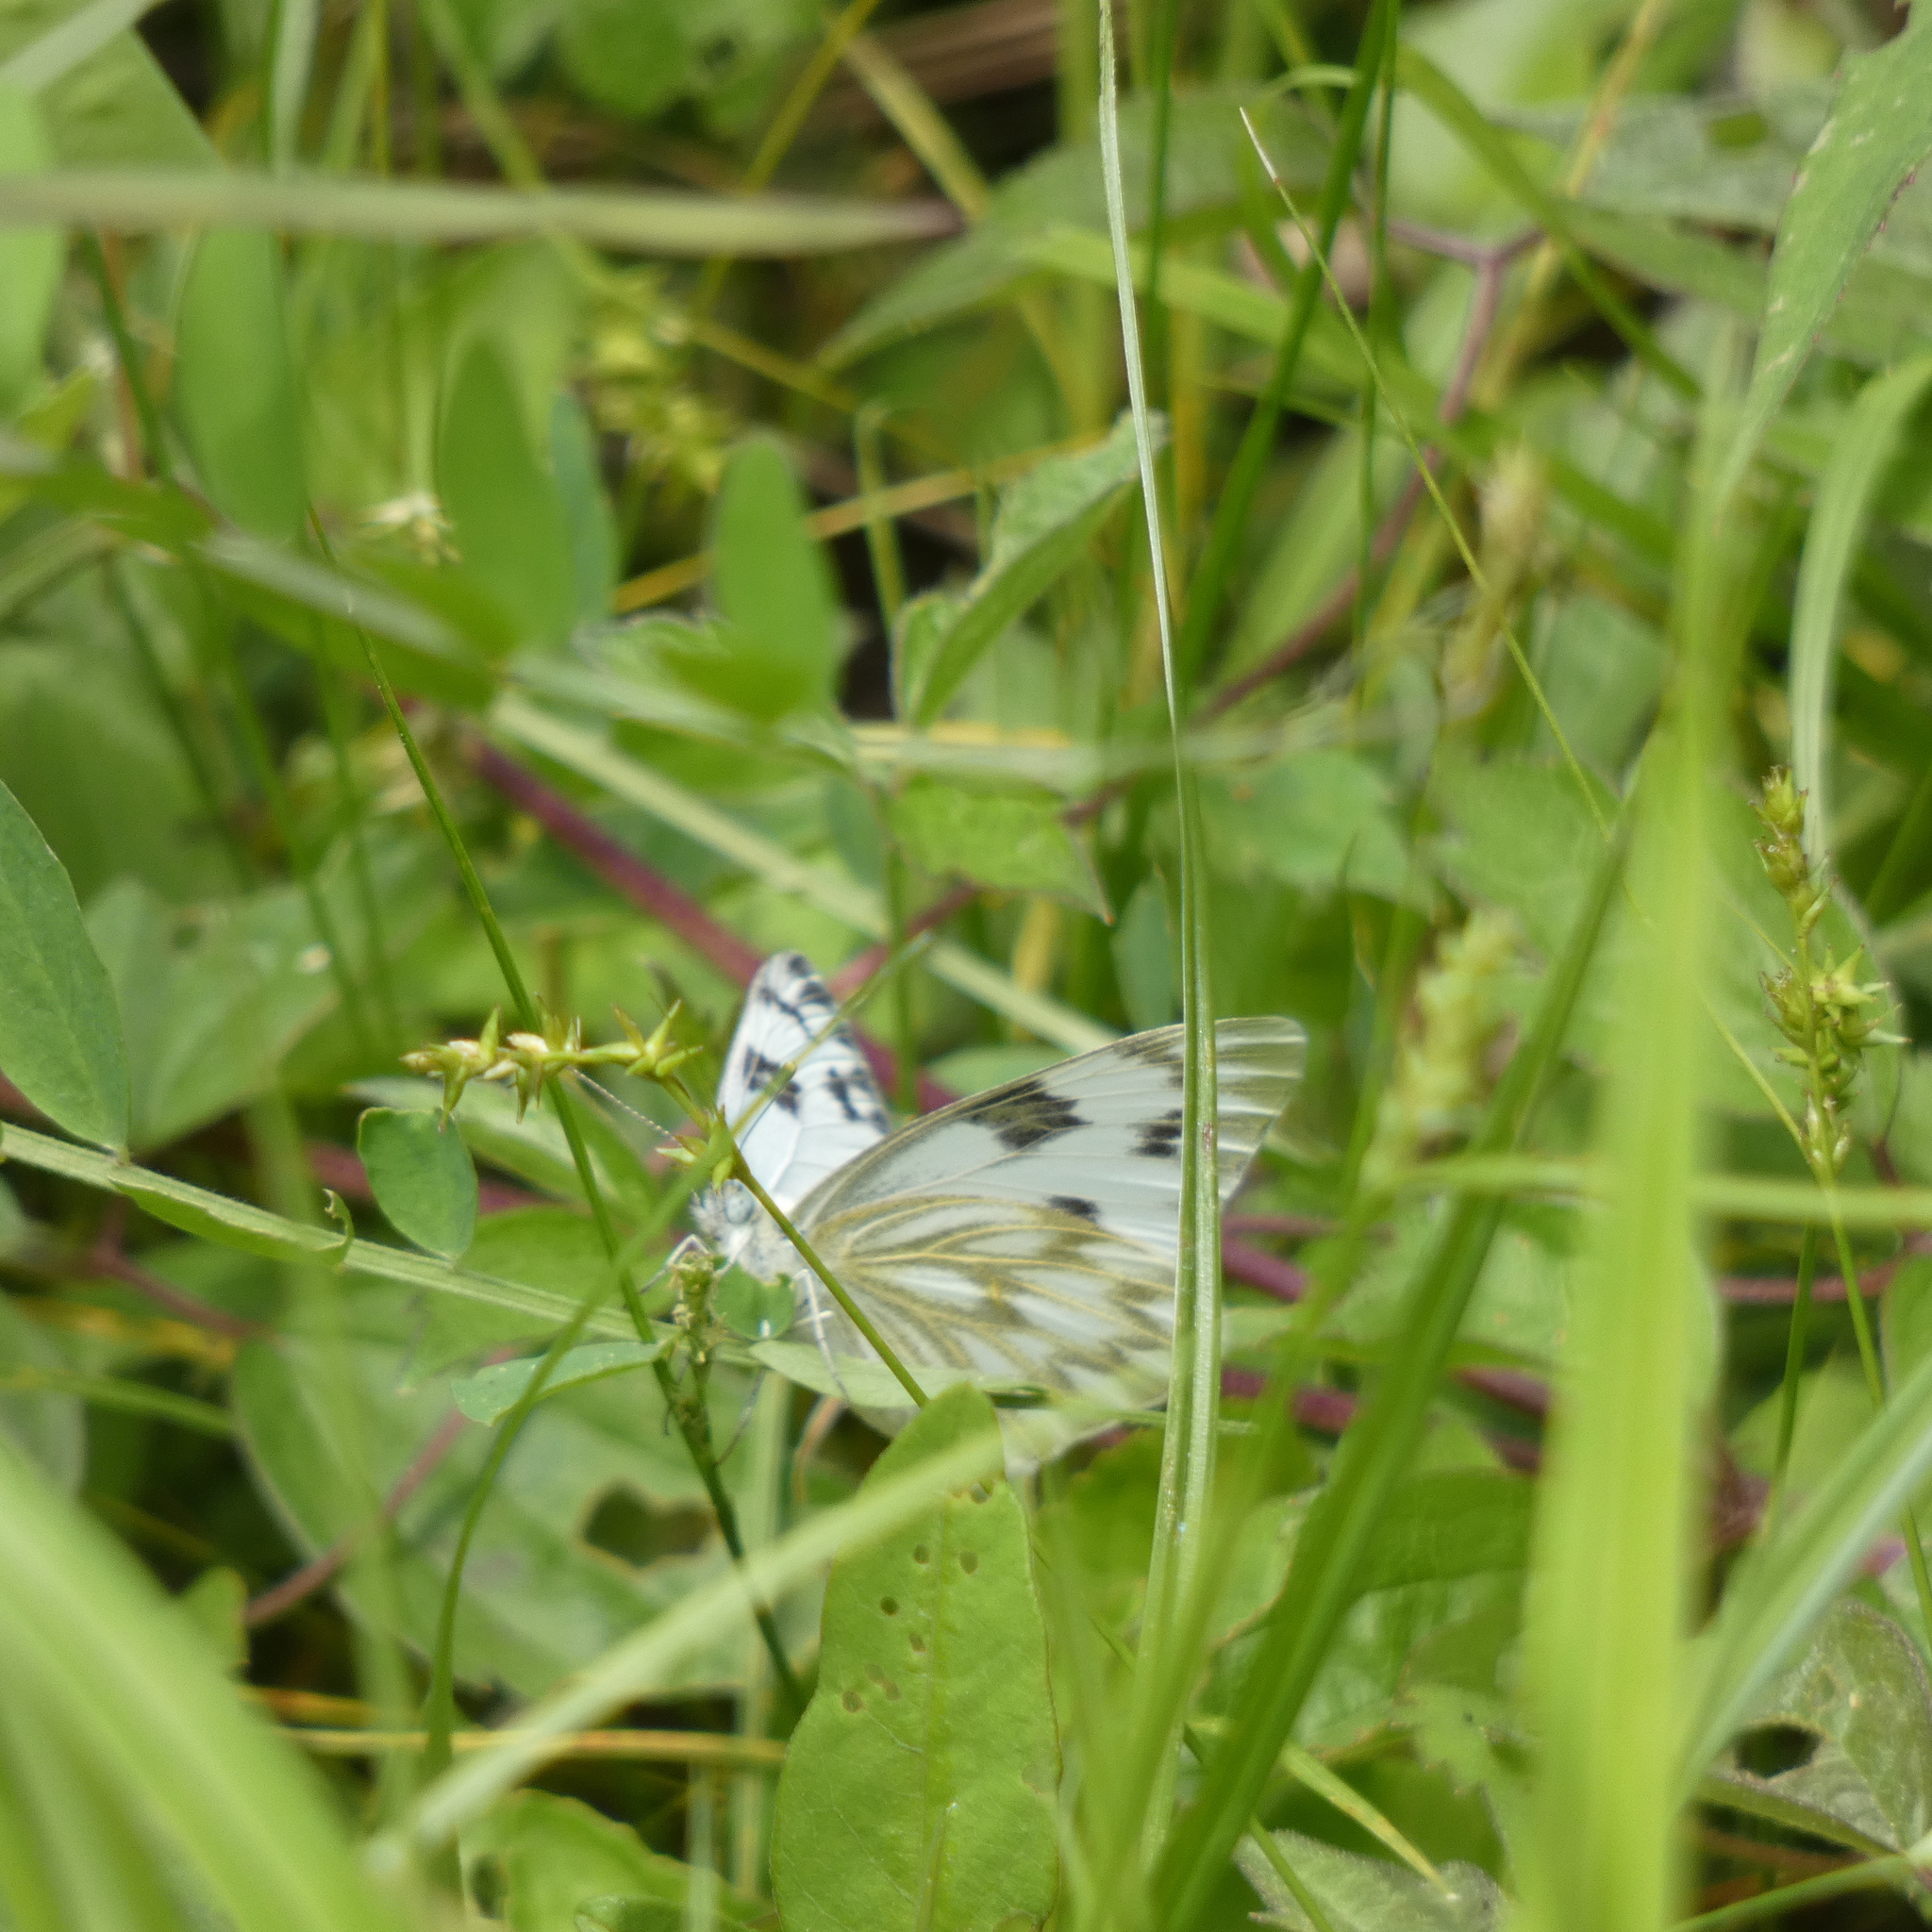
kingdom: Animalia
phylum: Arthropoda
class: Insecta
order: Lepidoptera
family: Pieridae
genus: Pontia
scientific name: Pontia protodice
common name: Checkered white
